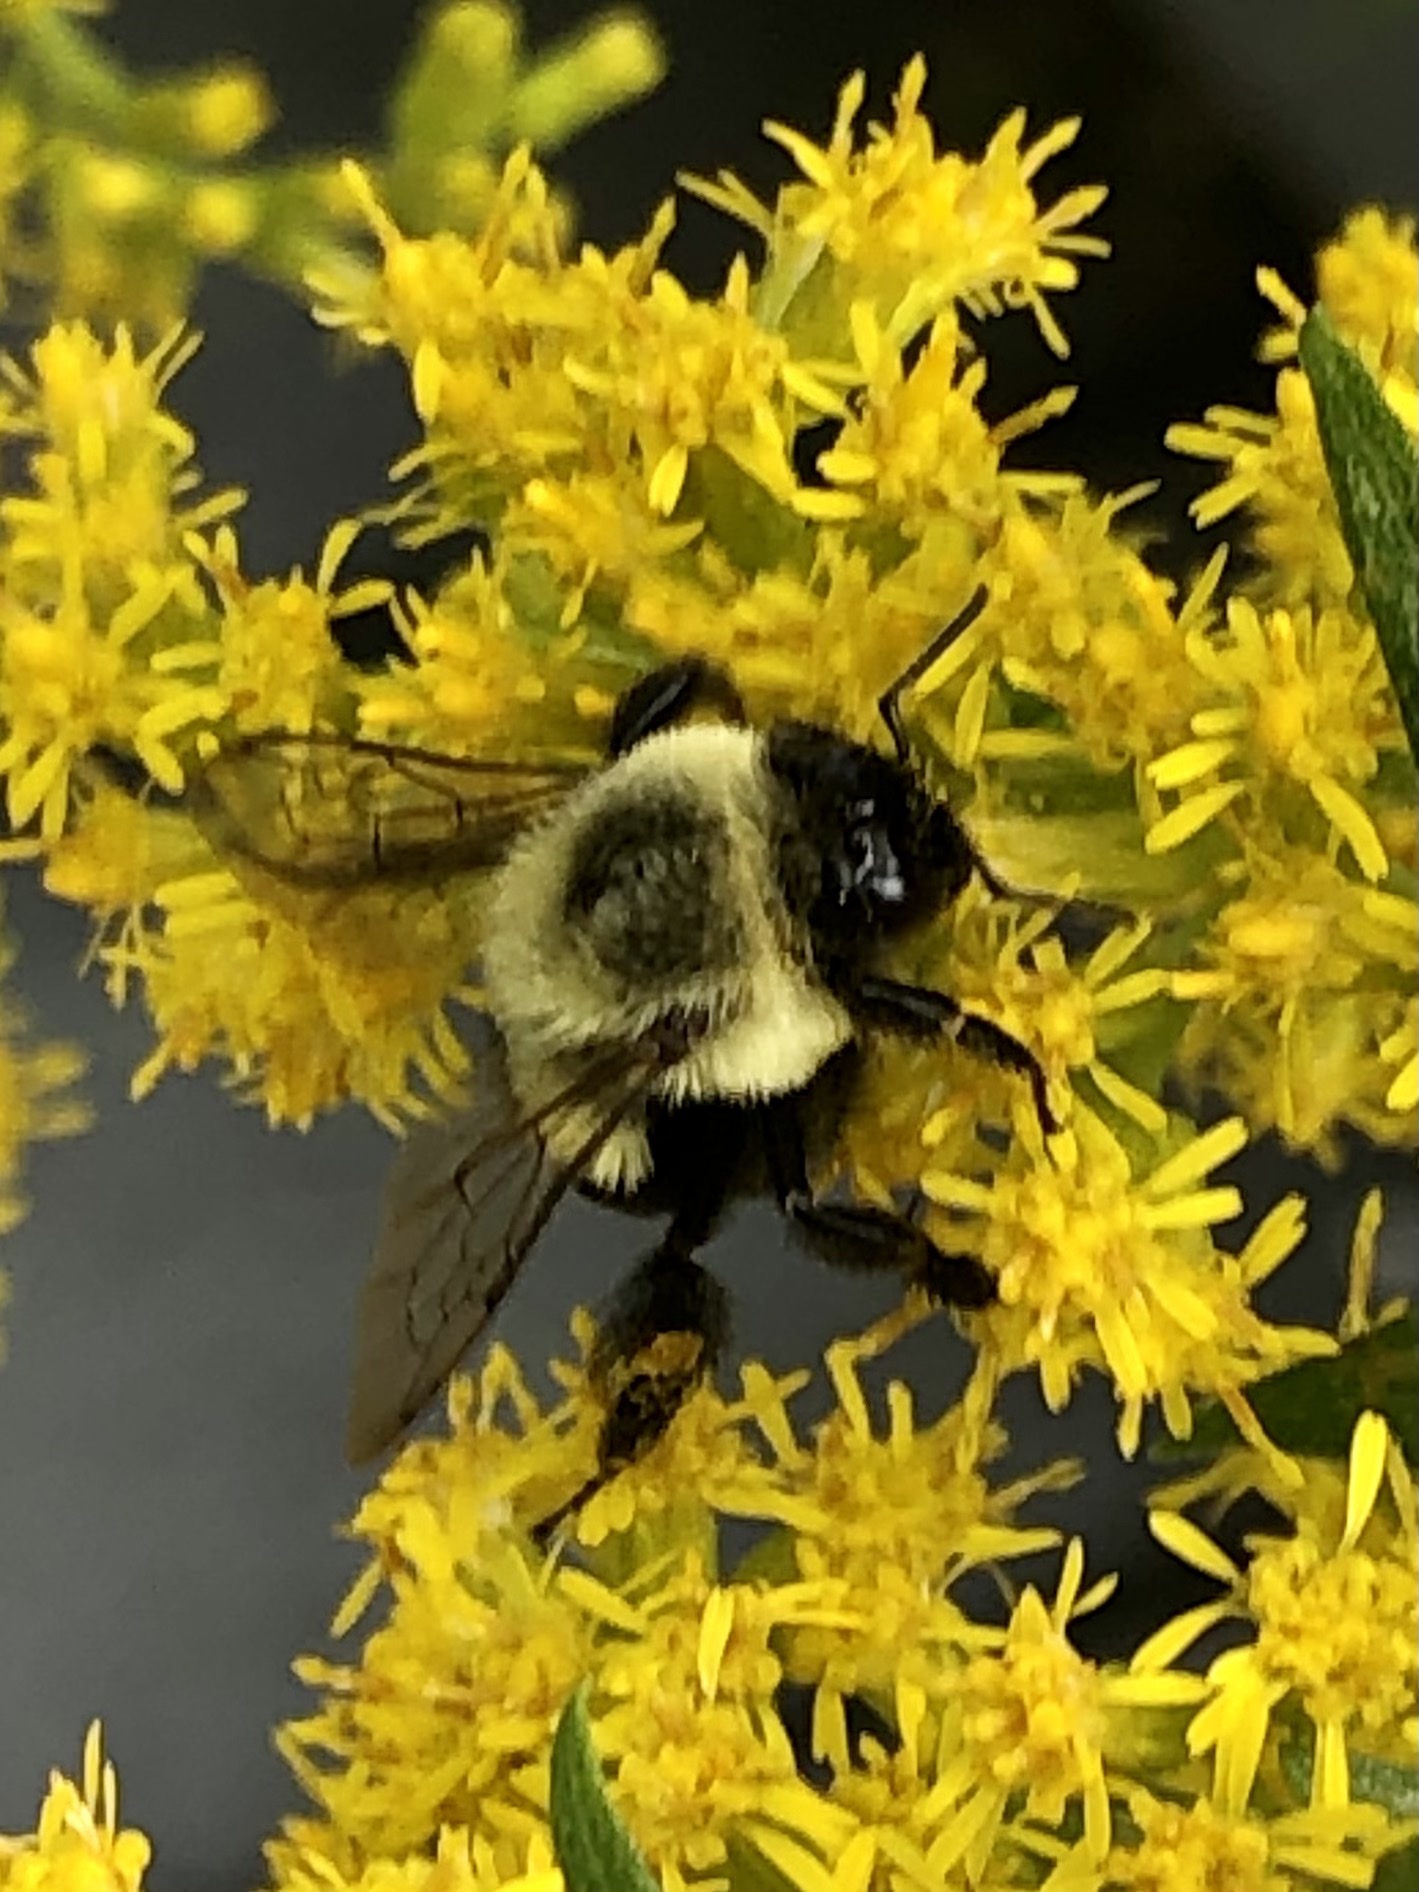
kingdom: Animalia
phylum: Arthropoda
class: Insecta
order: Hymenoptera
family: Apidae
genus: Bombus
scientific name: Bombus impatiens
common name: Common eastern bumble bee
